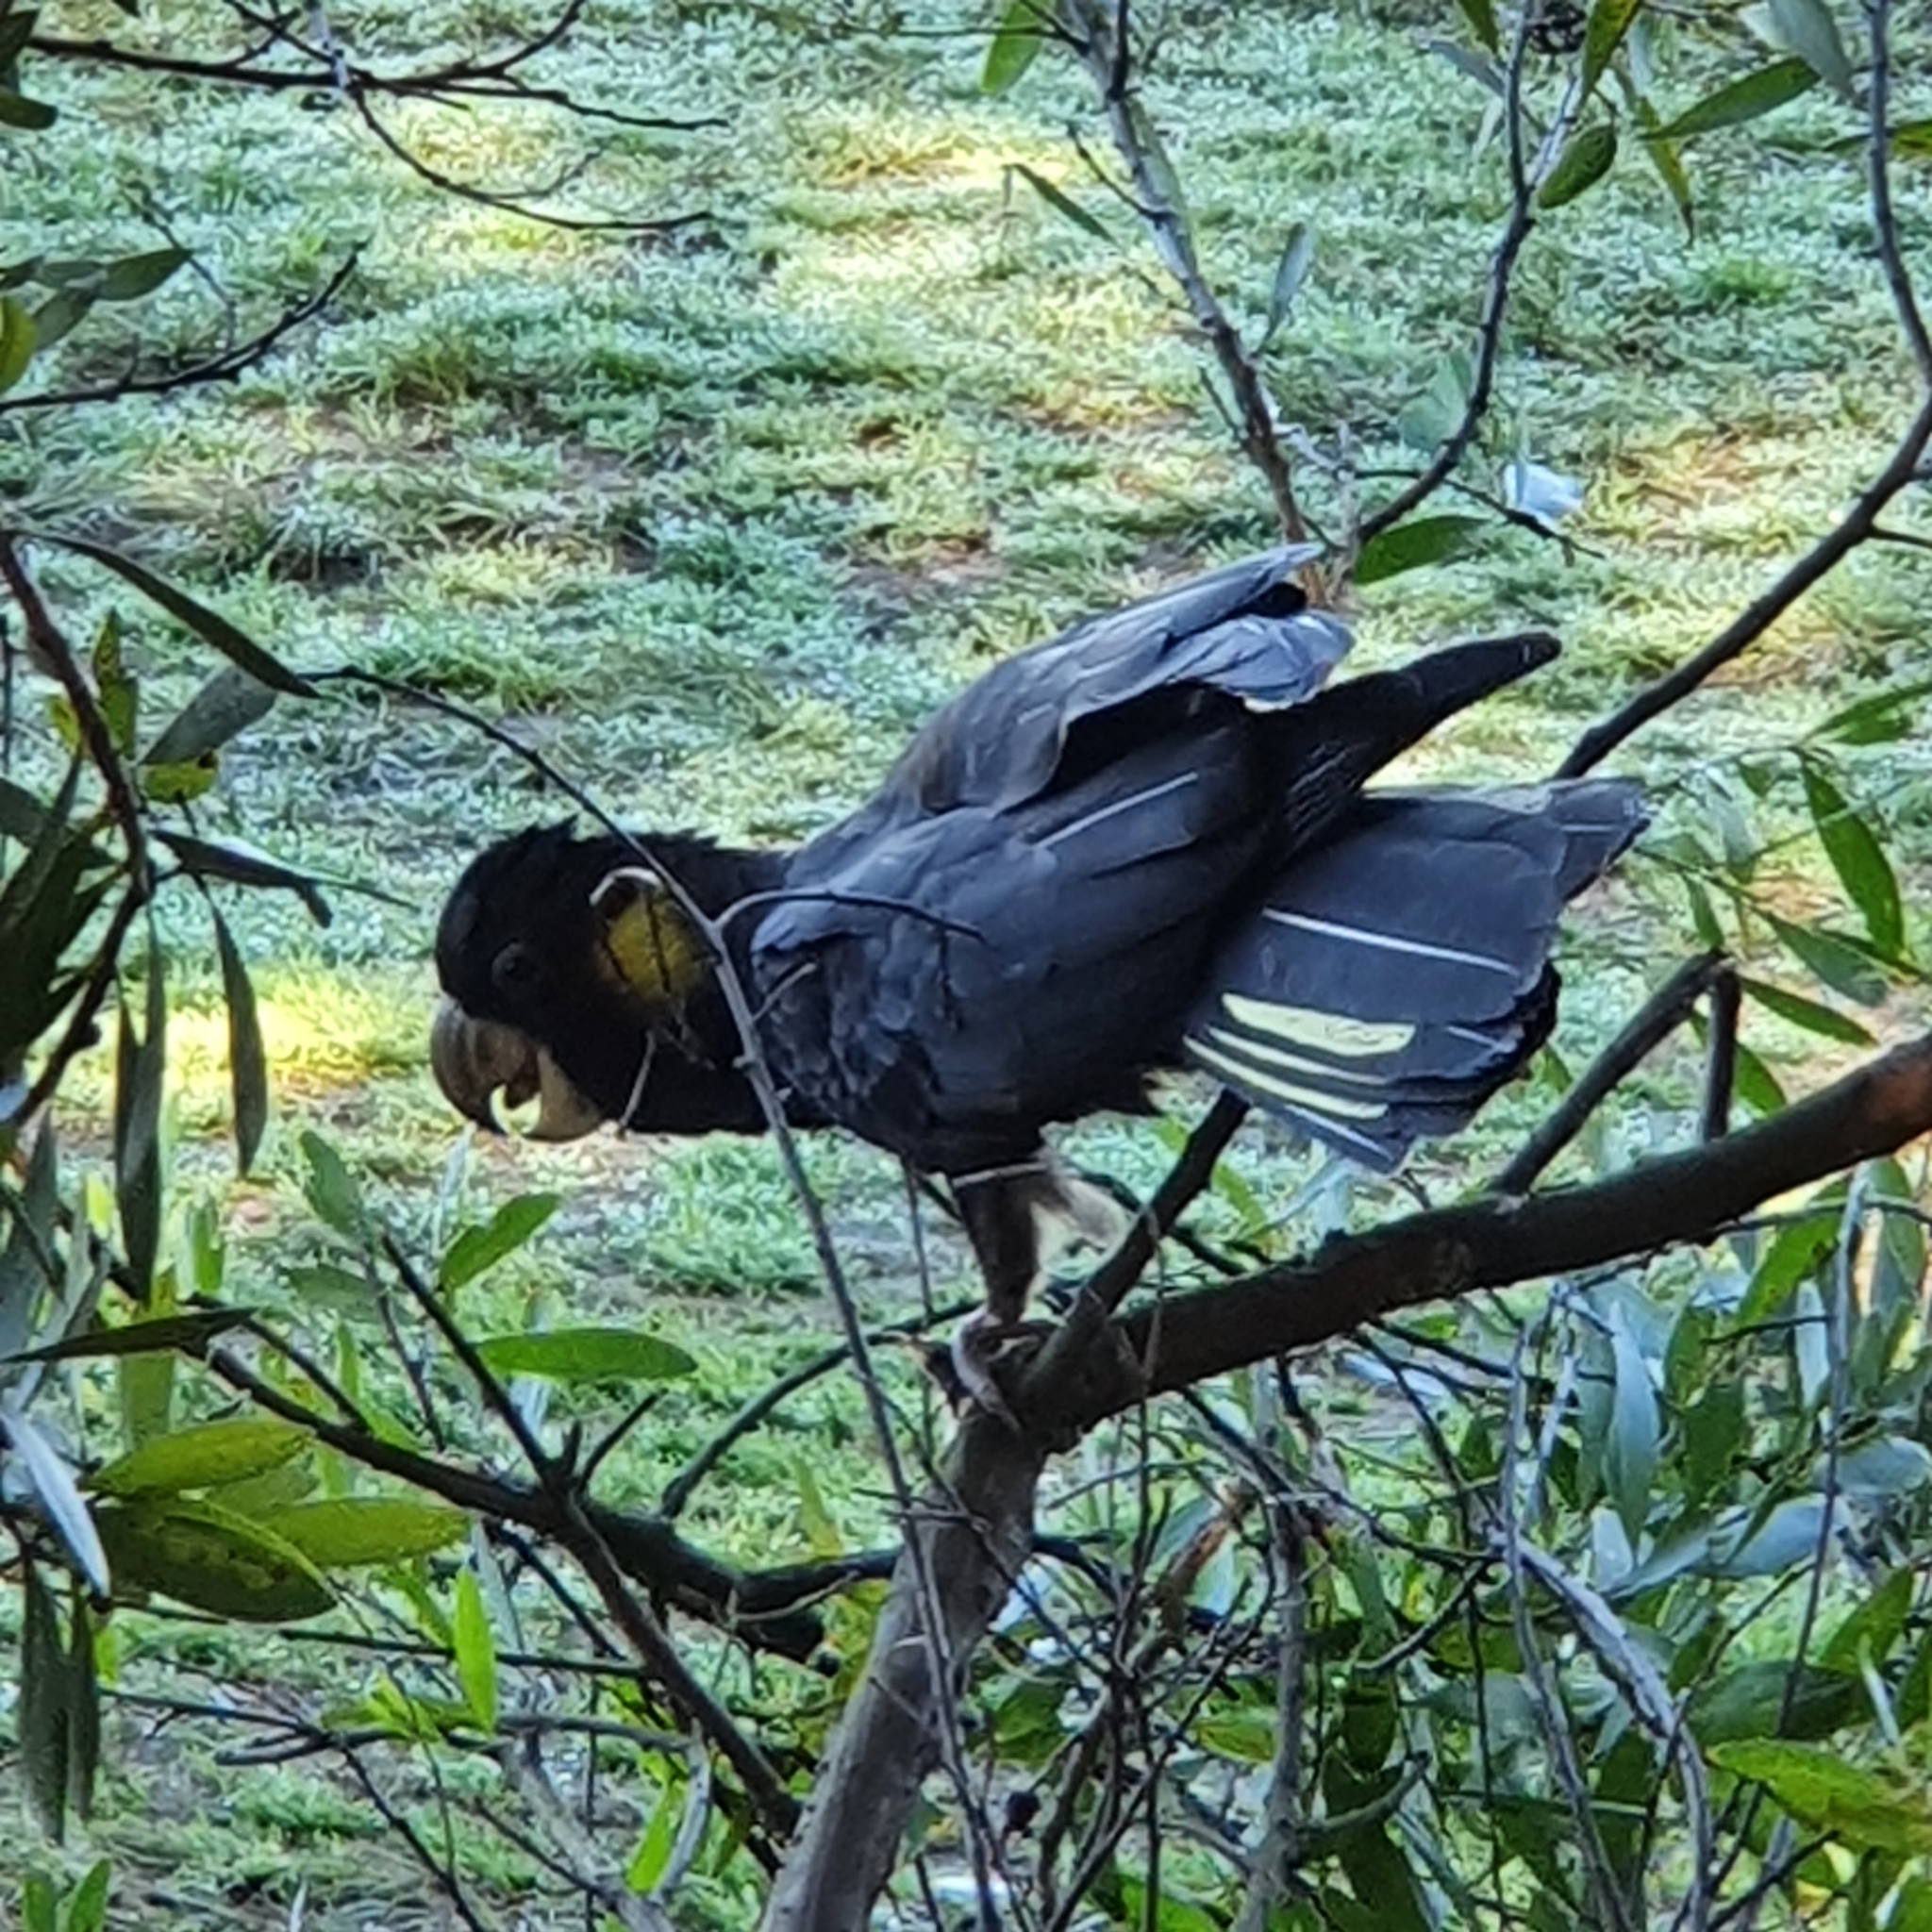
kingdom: Animalia
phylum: Chordata
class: Aves
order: Psittaciformes
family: Cacatuidae
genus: Zanda
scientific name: Zanda funerea
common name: Yellow-tailed black-cockatoo
